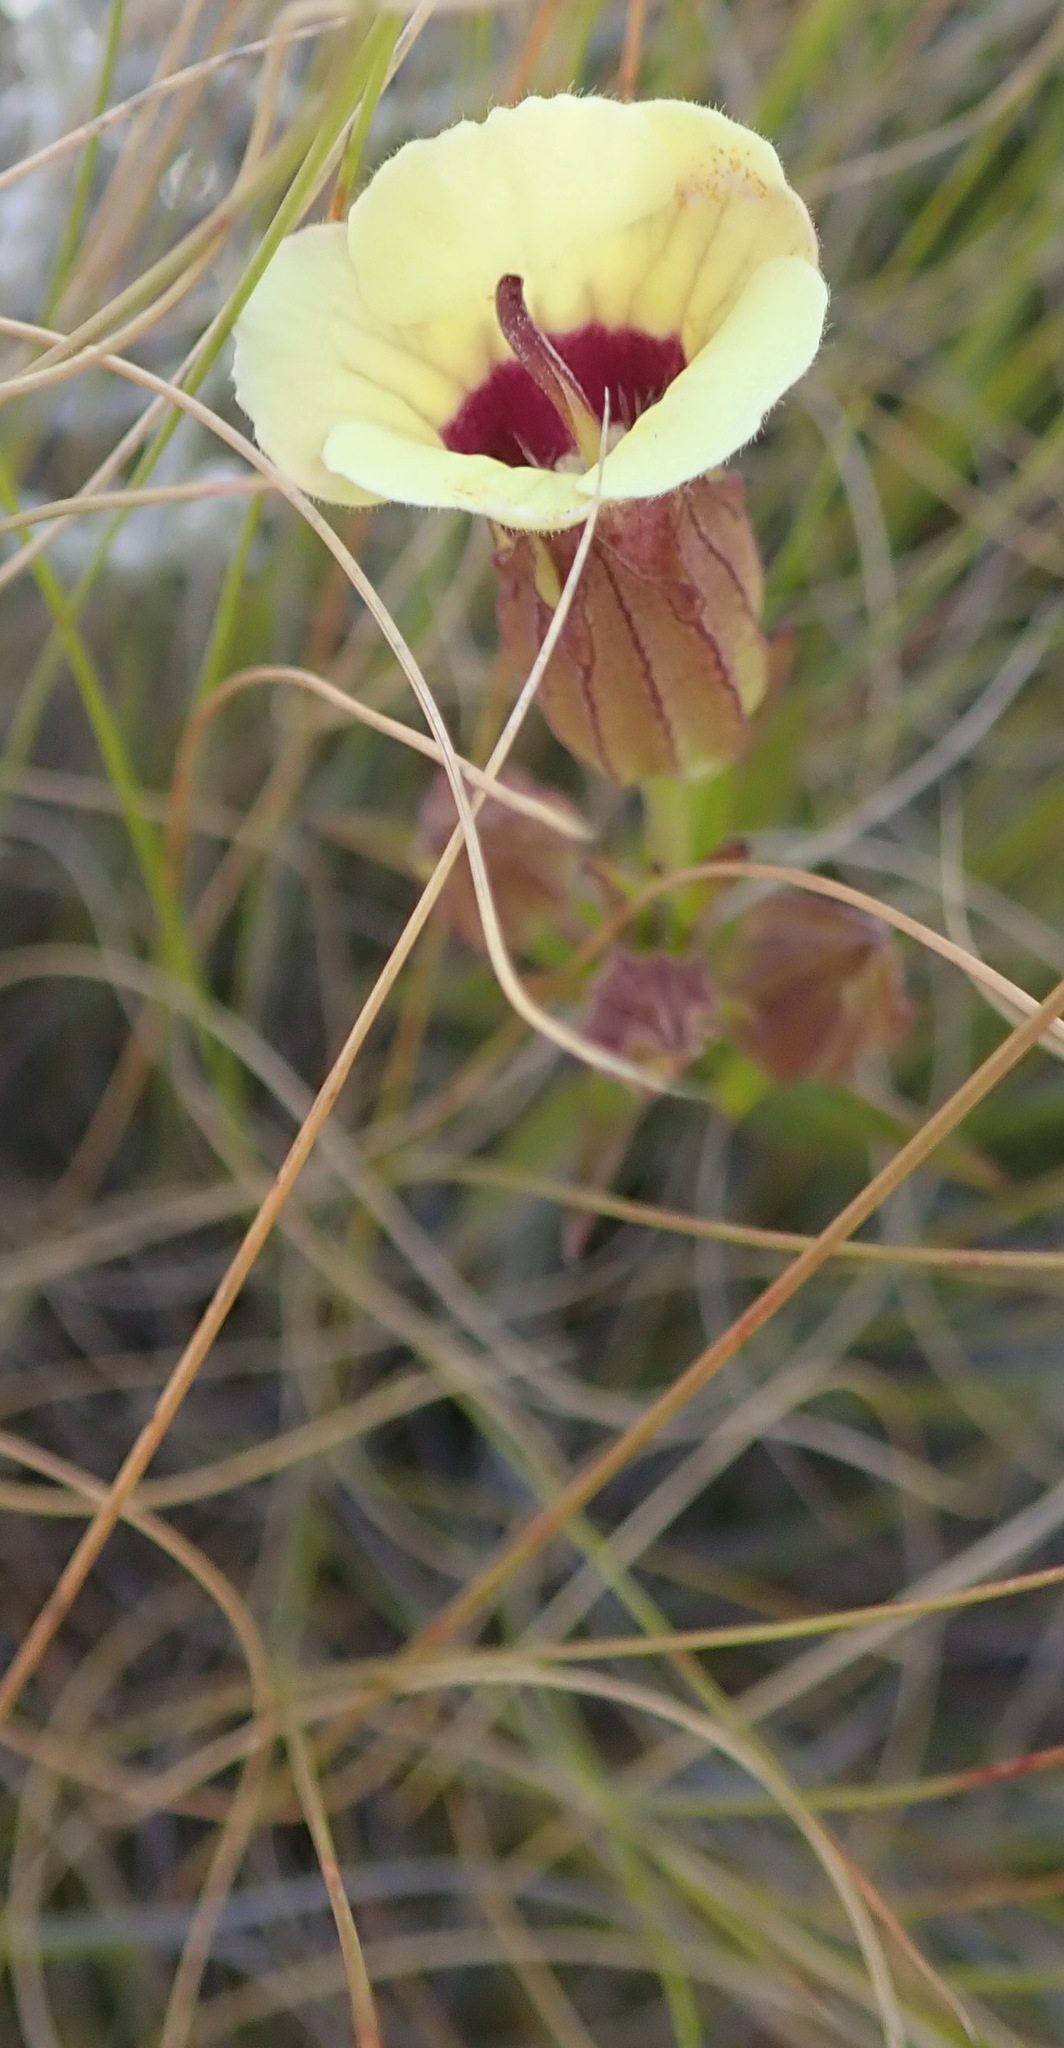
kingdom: Plantae
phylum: Tracheophyta
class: Magnoliopsida
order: Lamiales
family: Orobanchaceae
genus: Melasma
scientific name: Melasma scabrum
